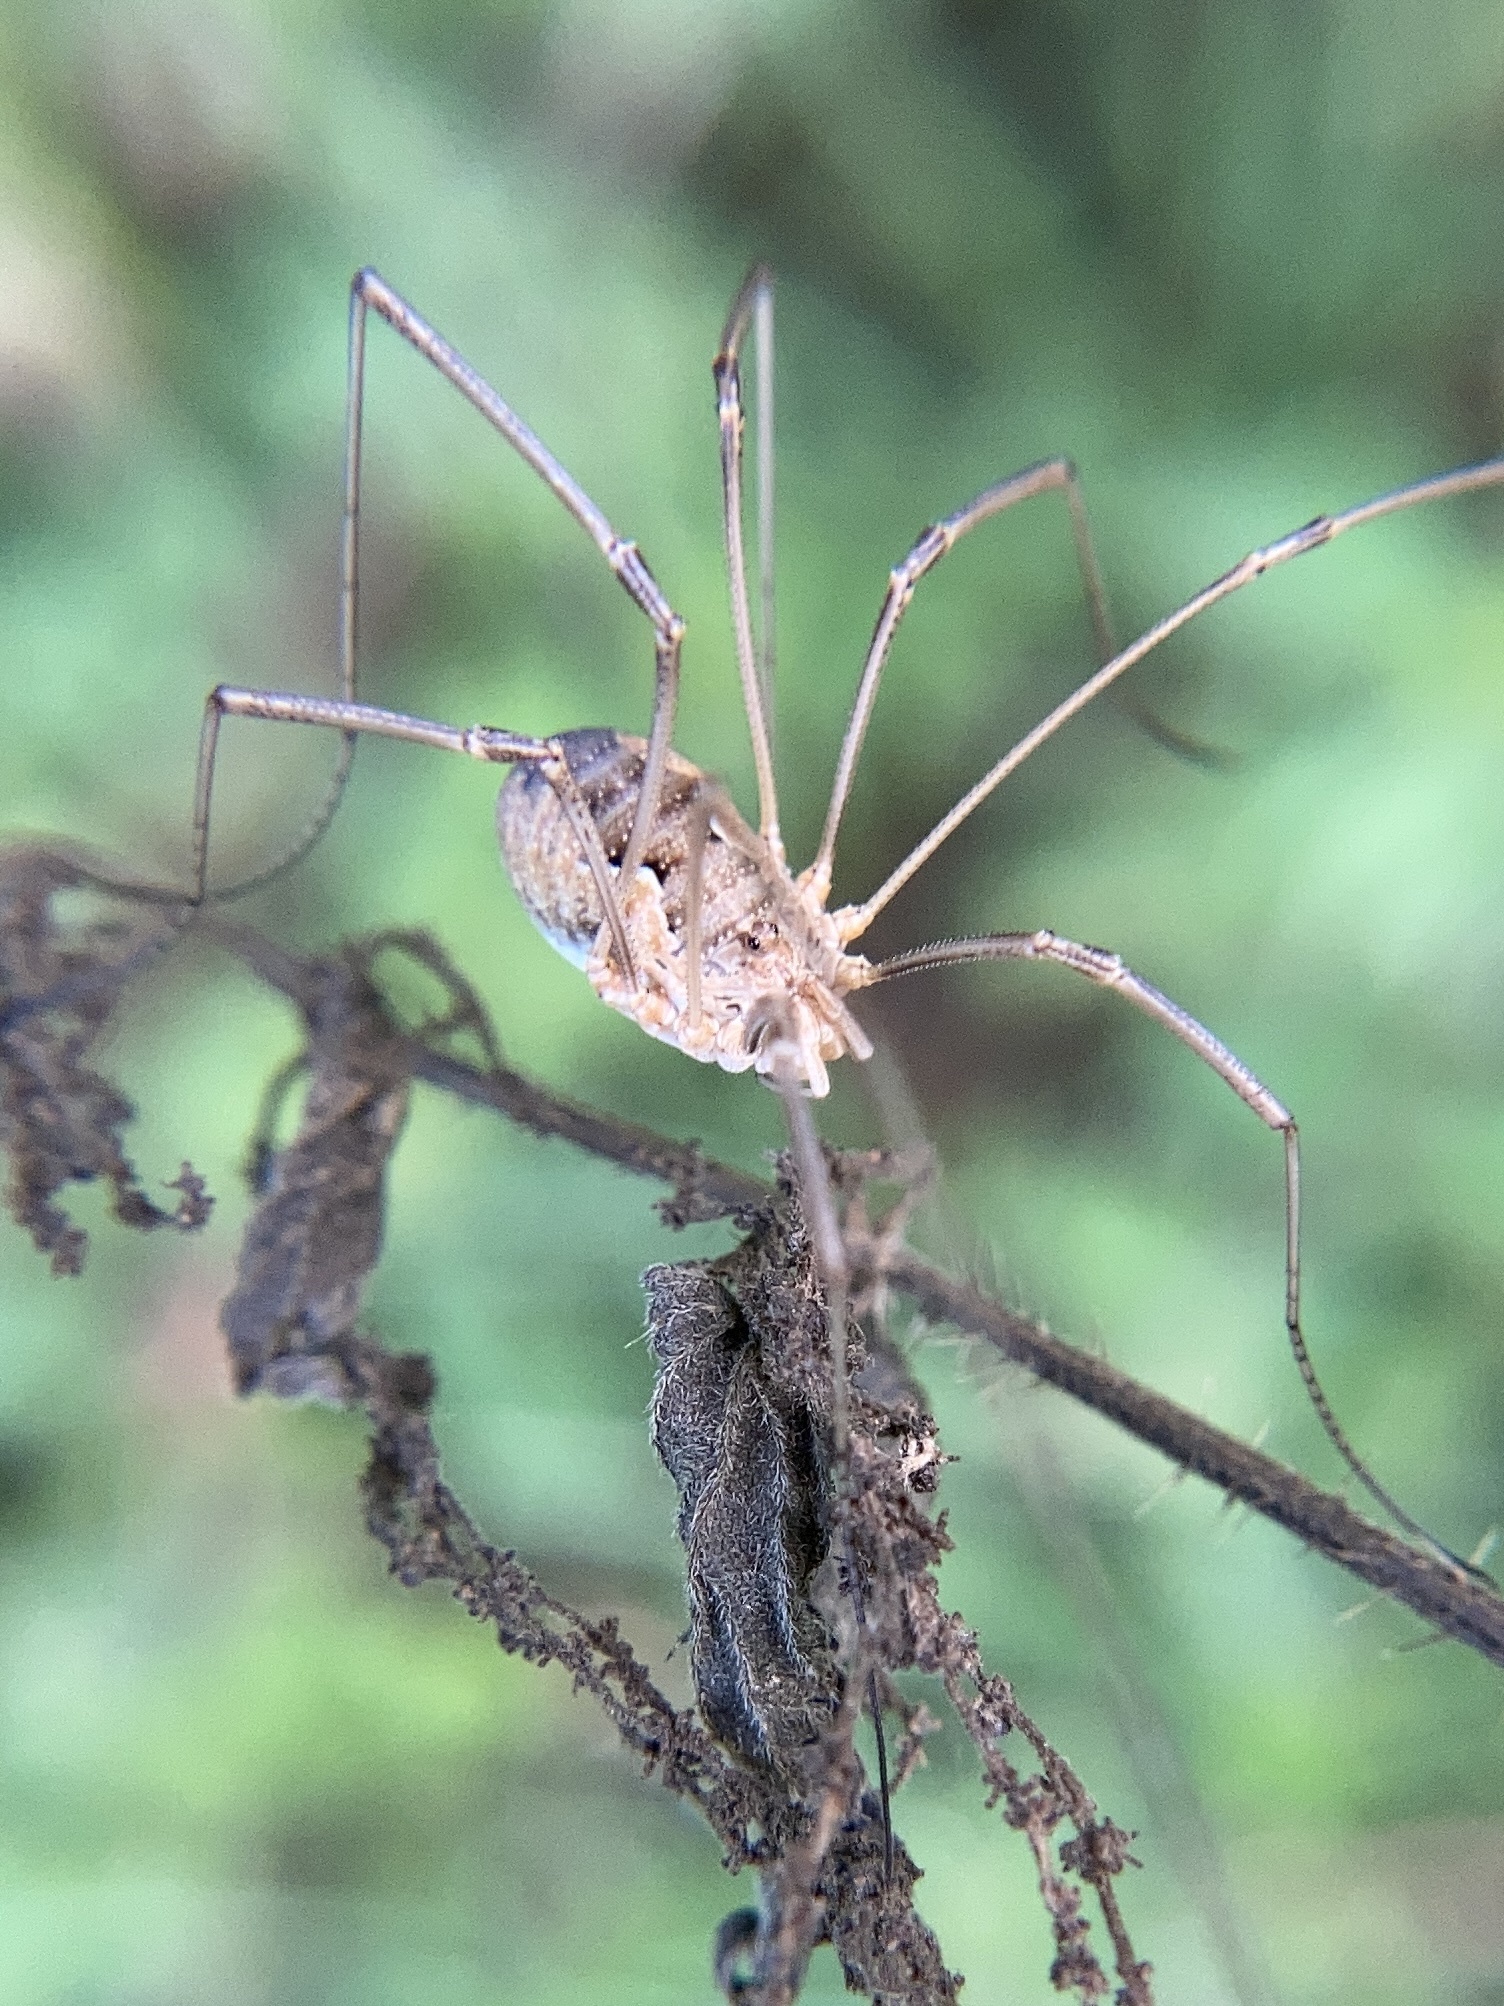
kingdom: Animalia
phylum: Arthropoda
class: Arachnida
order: Opiliones
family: Phalangiidae
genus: Phalangium
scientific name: Phalangium opilio
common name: Daddy longleg
